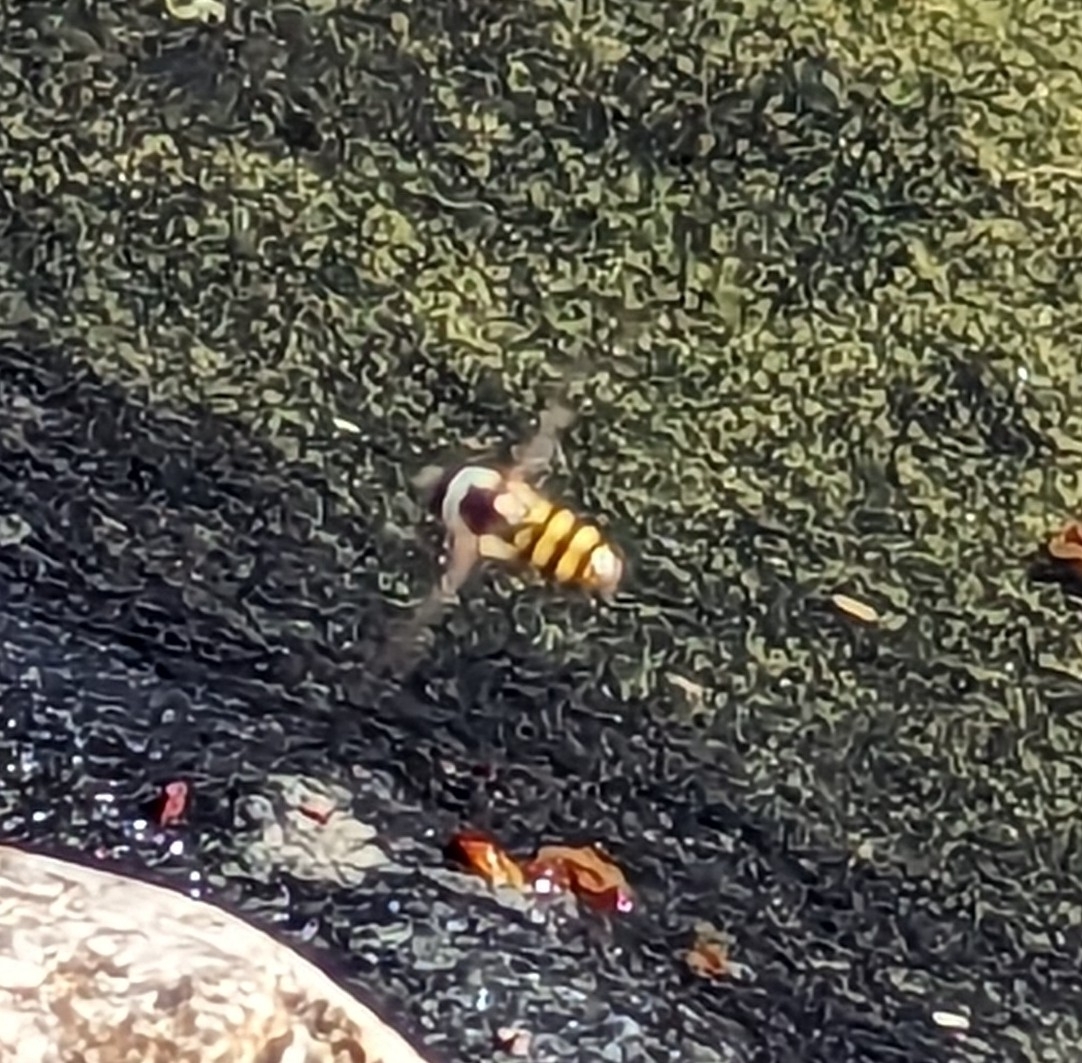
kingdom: Animalia
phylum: Arthropoda
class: Insecta
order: Diptera
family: Syrphidae
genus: Eupeodes
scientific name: Eupeodes
